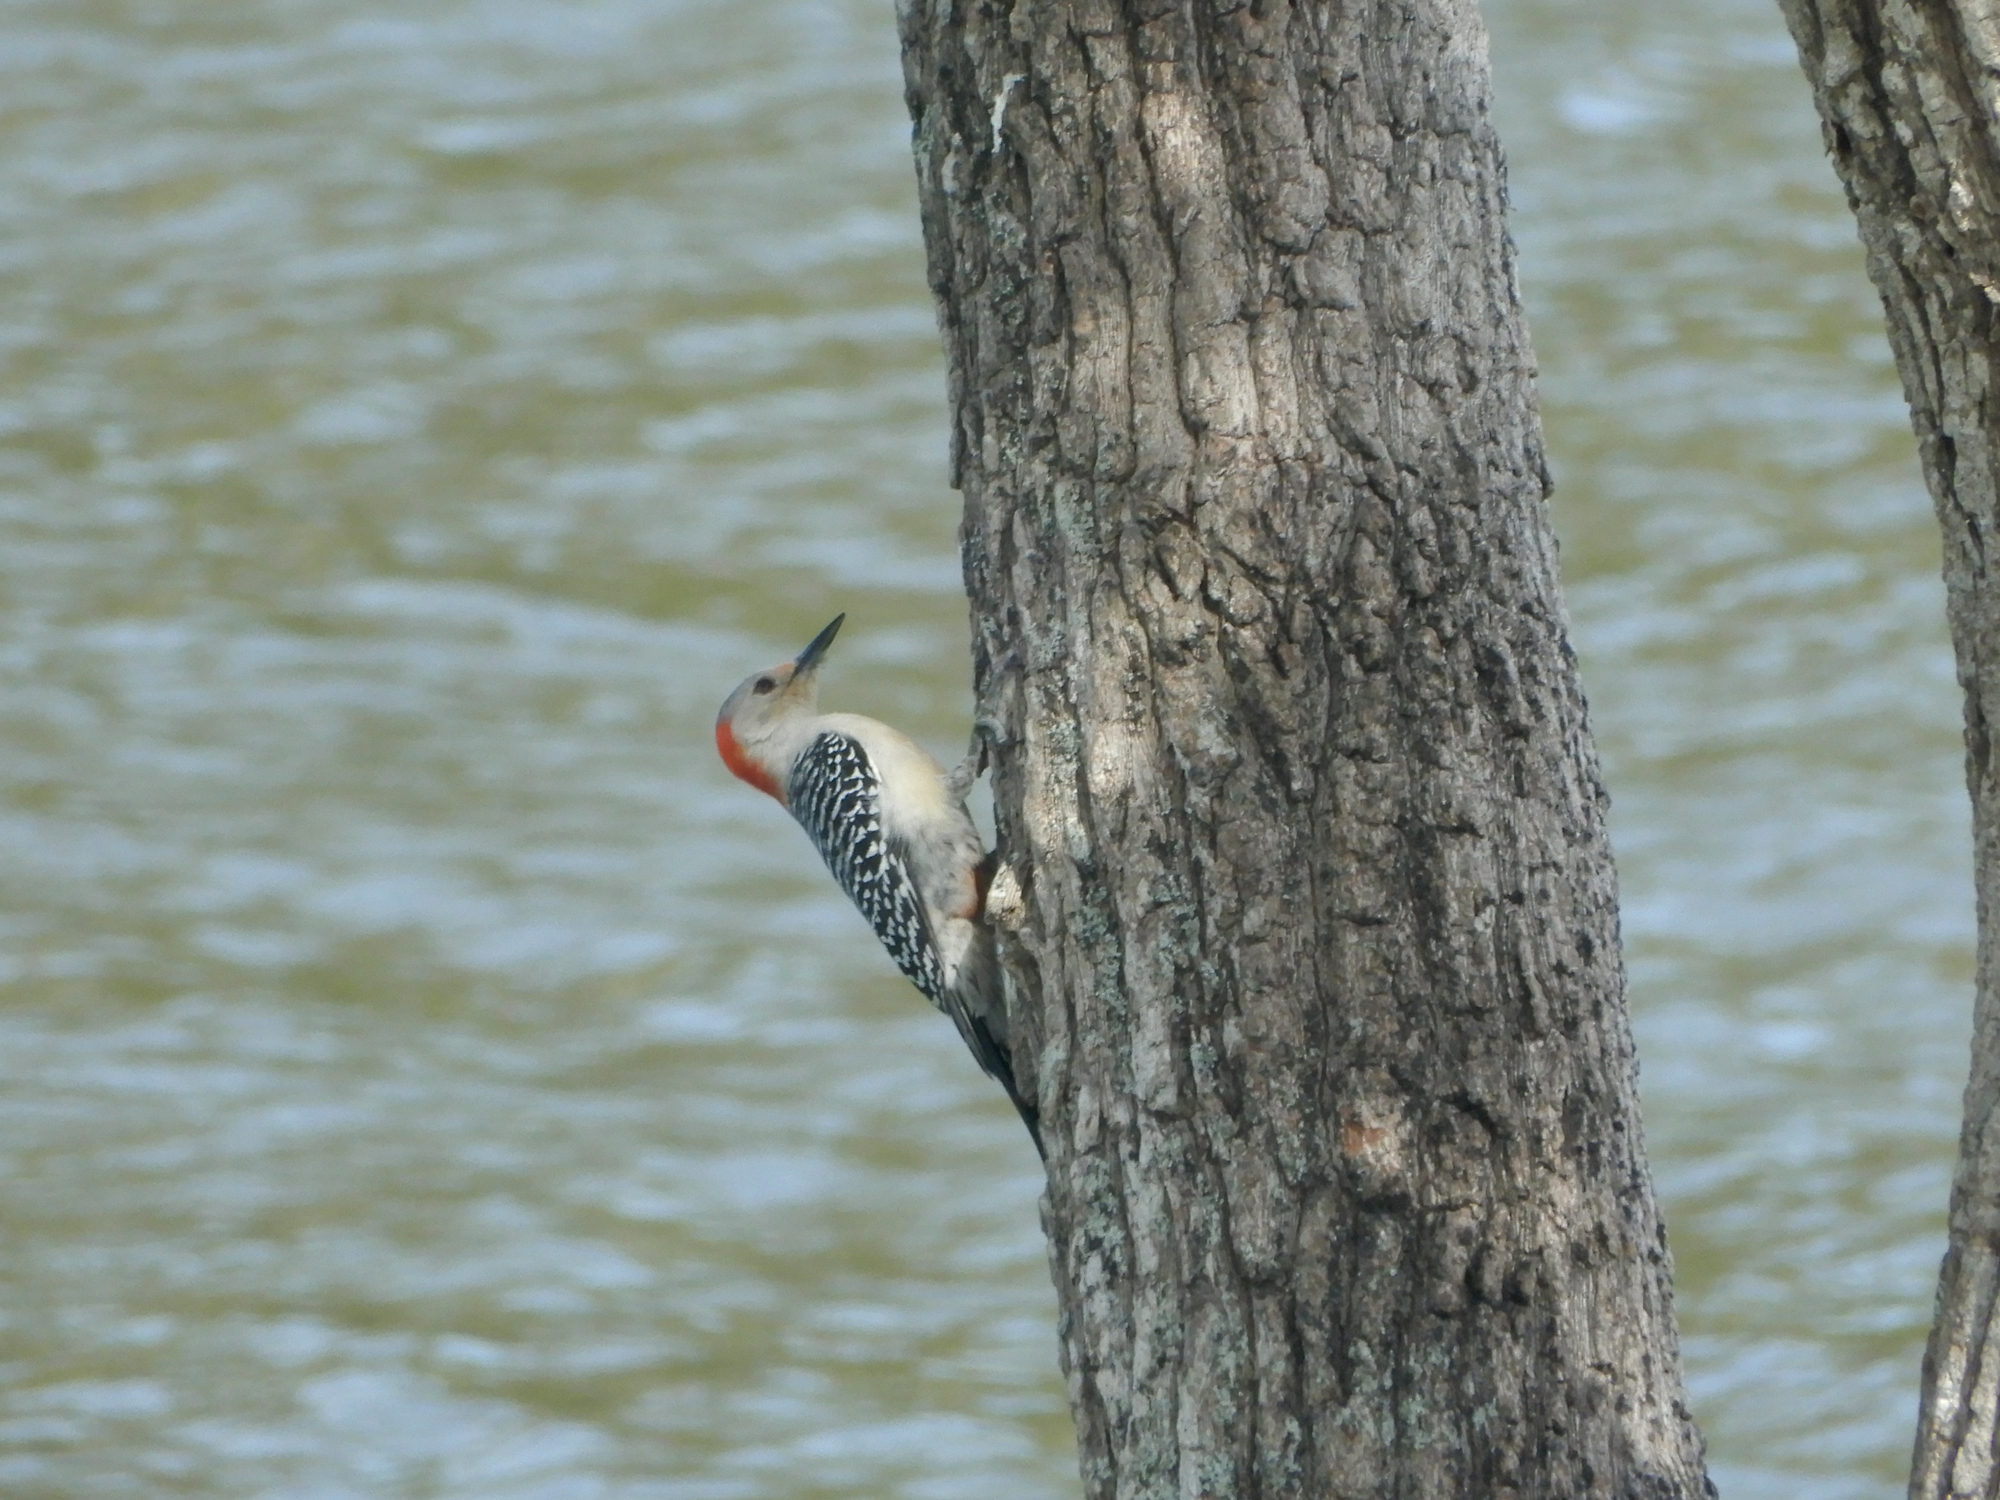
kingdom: Animalia
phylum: Chordata
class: Aves
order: Piciformes
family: Picidae
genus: Melanerpes
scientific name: Melanerpes carolinus
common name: Red-bellied woodpecker
